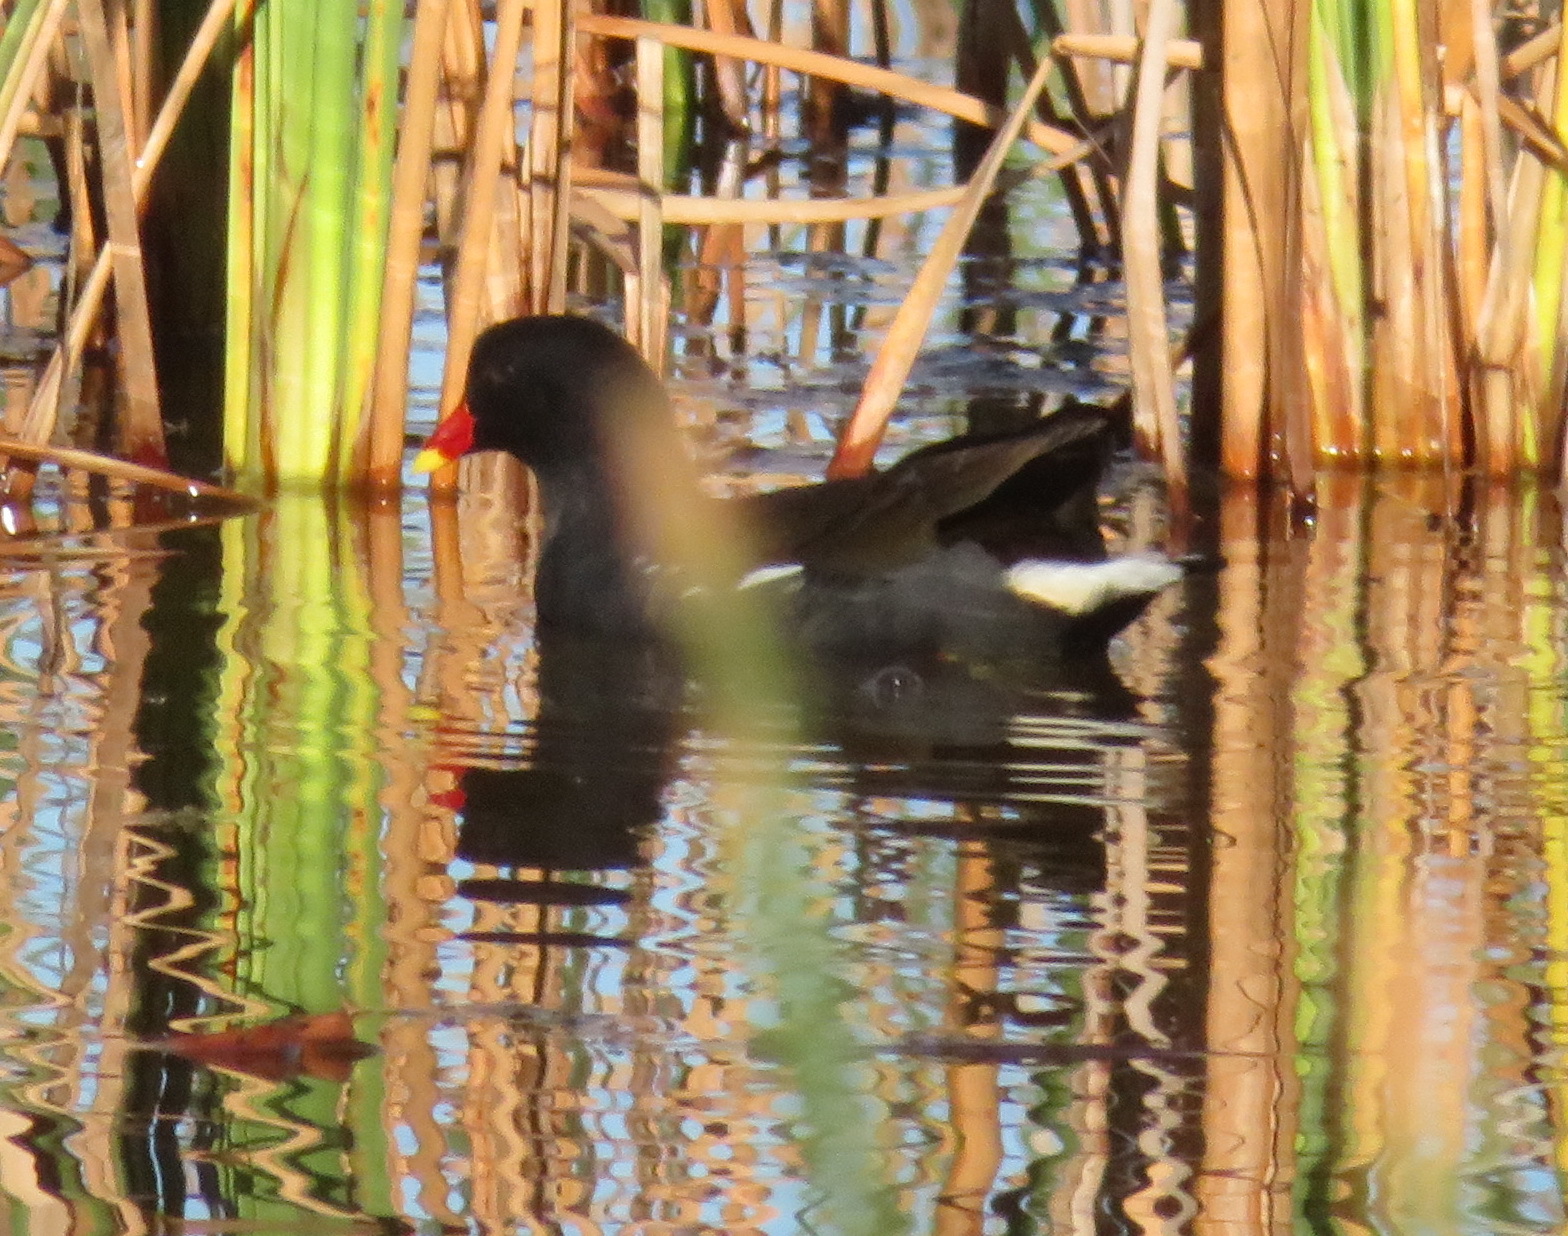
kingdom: Animalia
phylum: Chordata
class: Aves
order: Gruiformes
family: Rallidae
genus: Gallinula
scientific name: Gallinula chloropus
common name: Common moorhen
